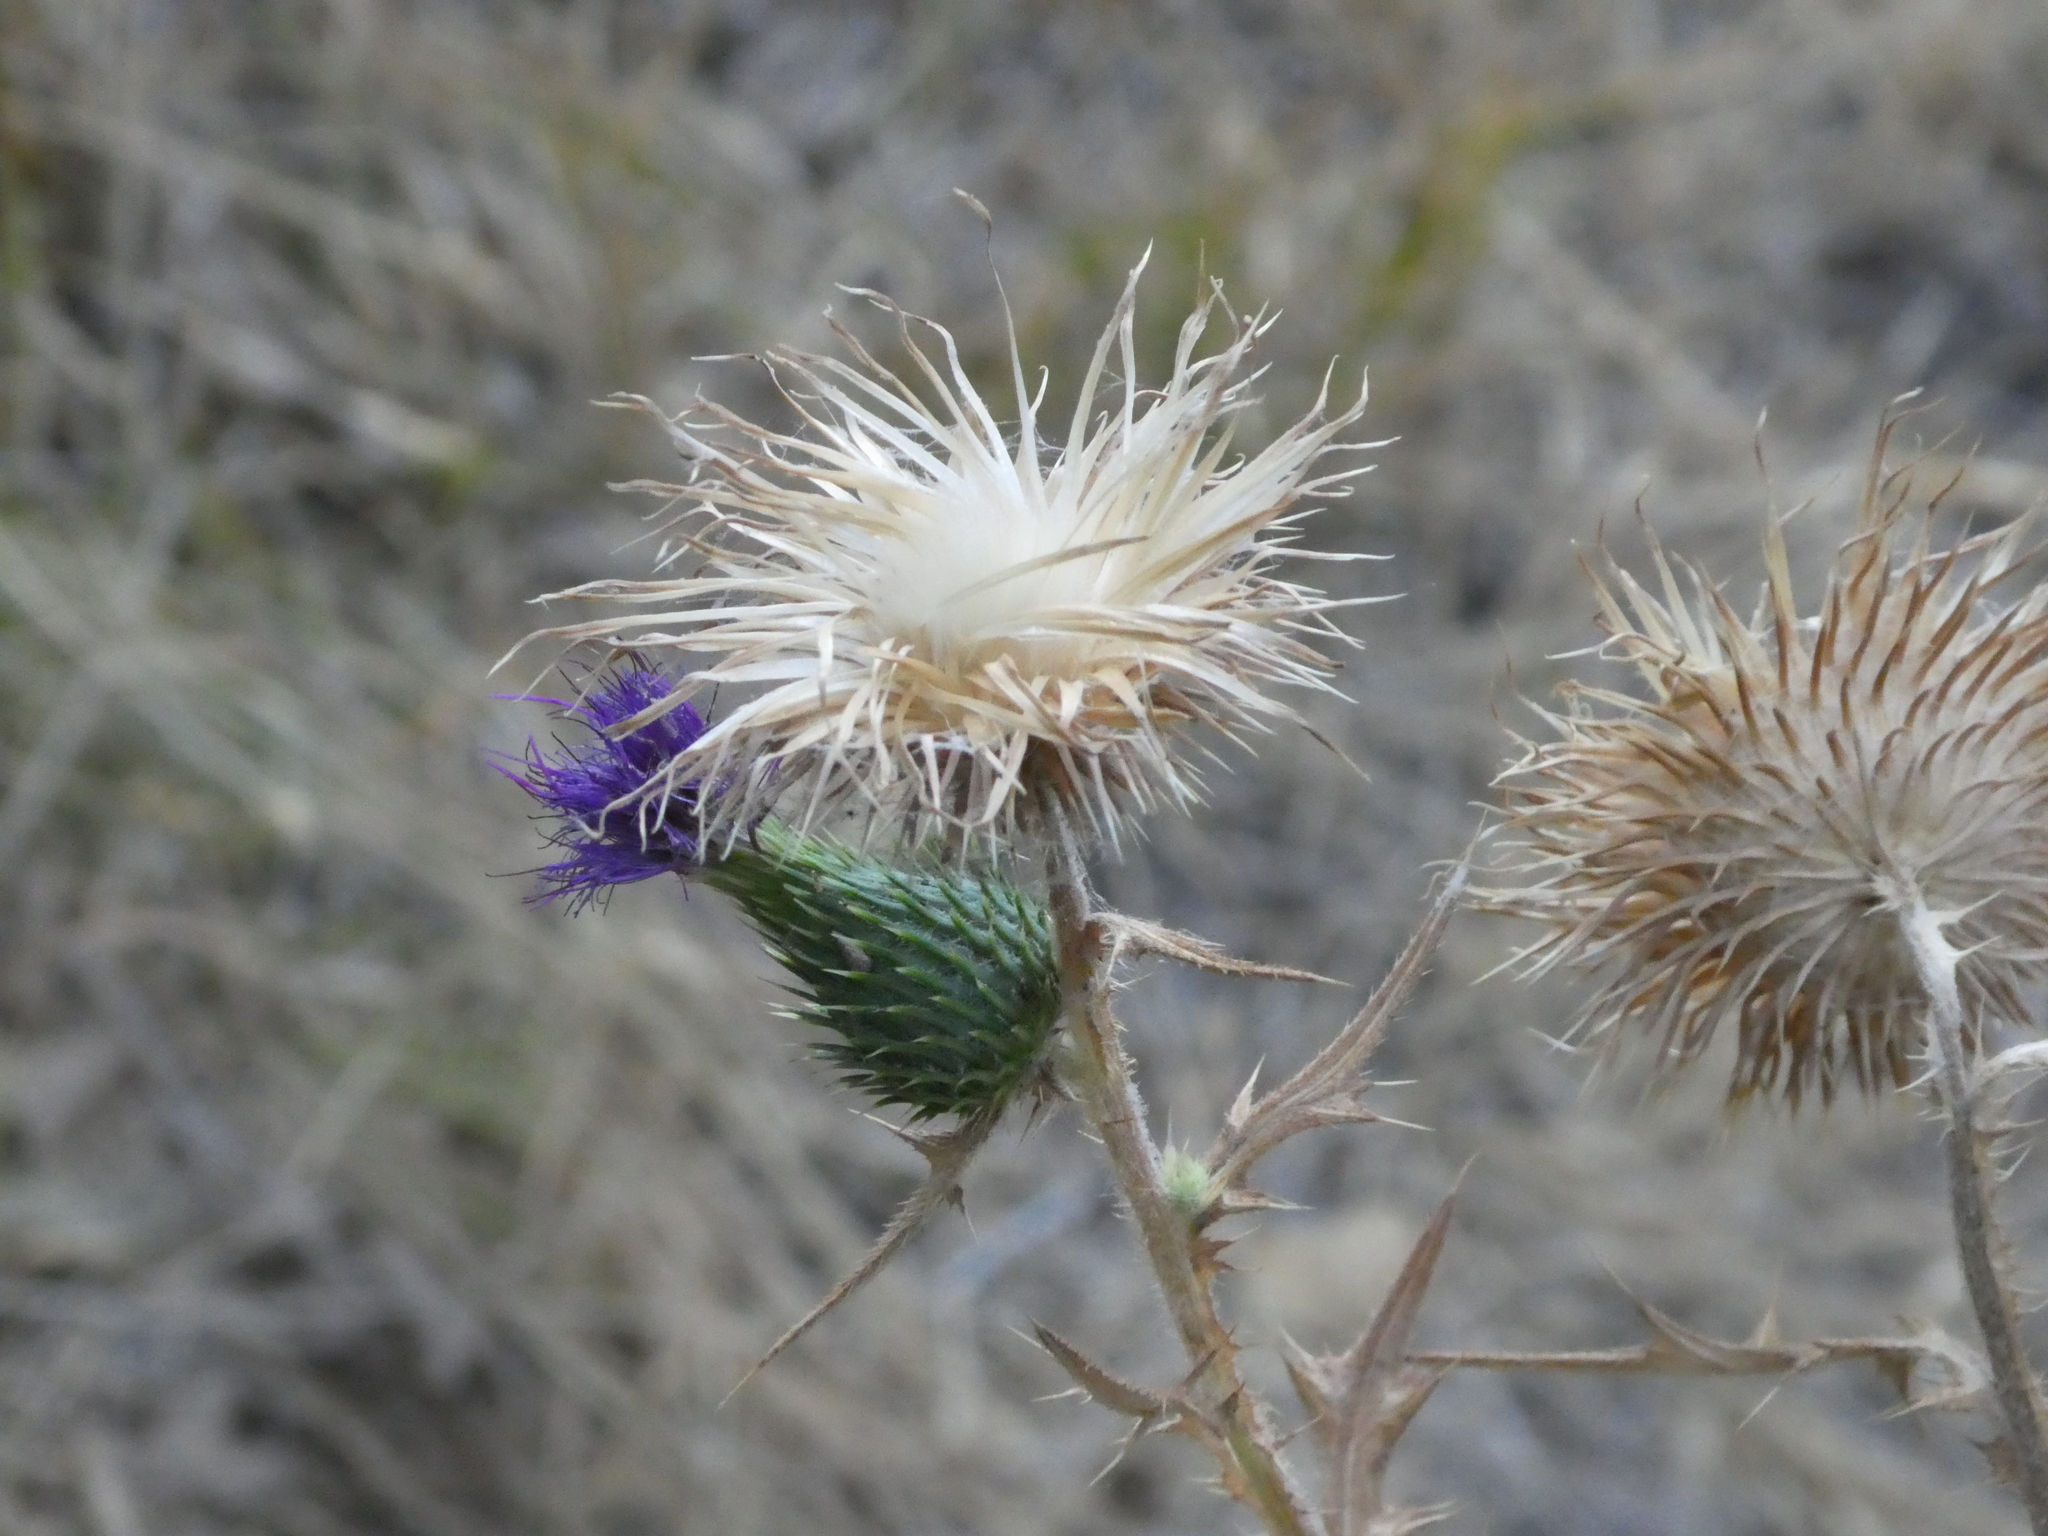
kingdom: Plantae
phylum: Tracheophyta
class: Magnoliopsida
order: Asterales
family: Asteraceae
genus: Cirsium
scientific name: Cirsium vulgare
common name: Bull thistle
